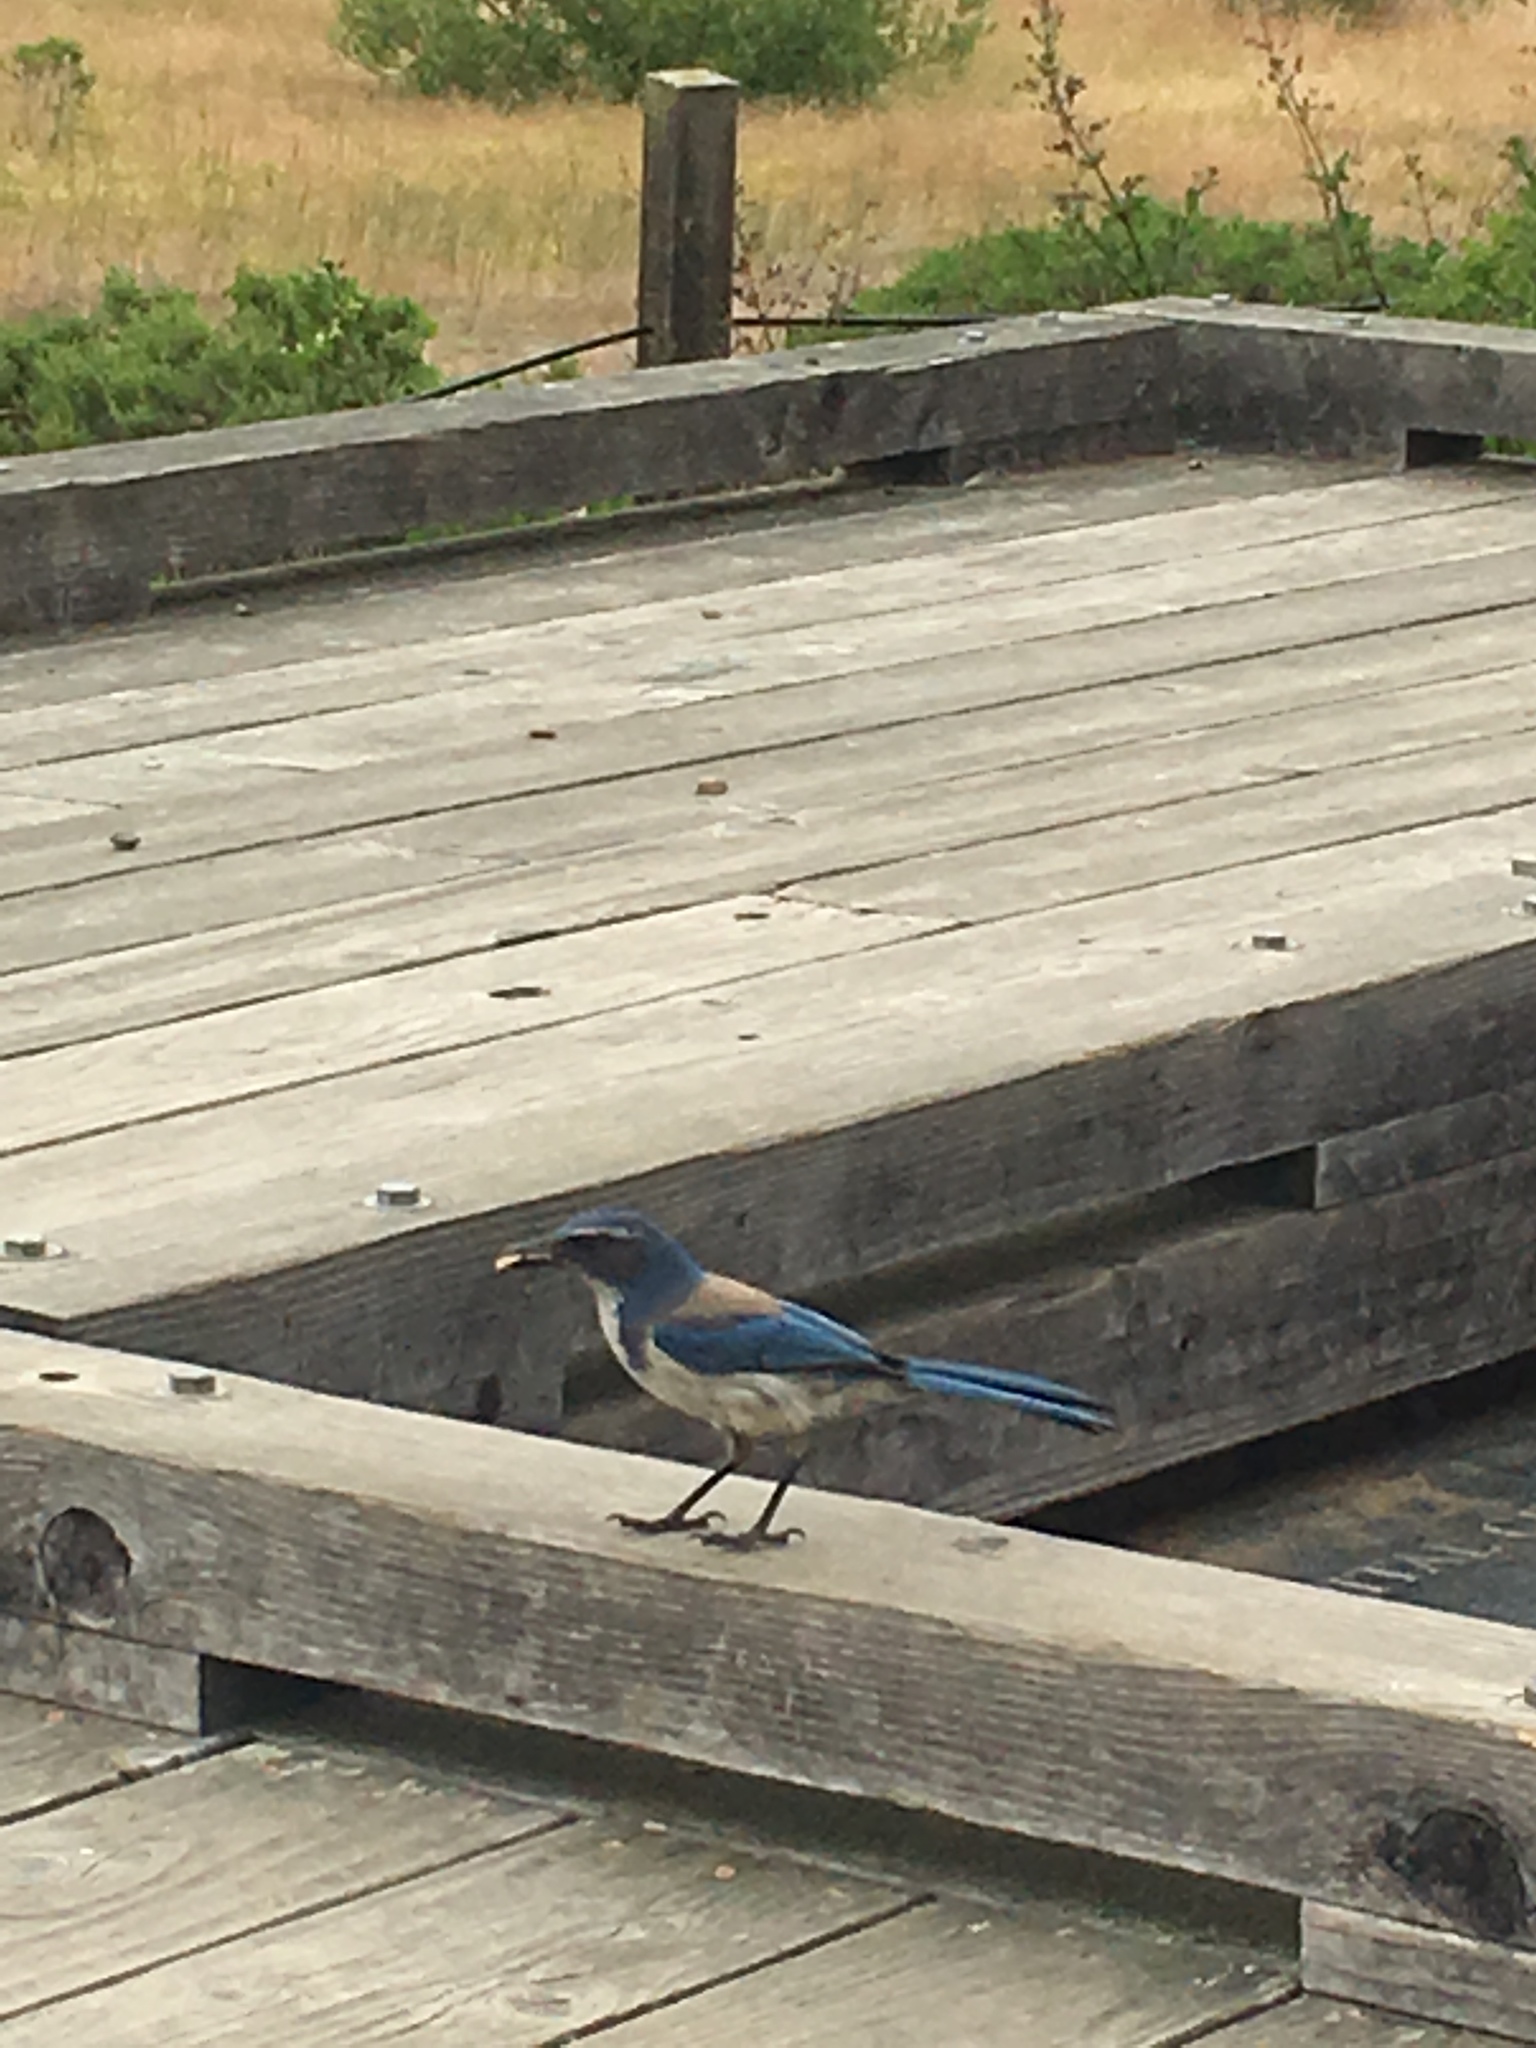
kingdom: Animalia
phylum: Chordata
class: Aves
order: Passeriformes
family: Corvidae
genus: Aphelocoma
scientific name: Aphelocoma californica
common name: California scrub-jay
